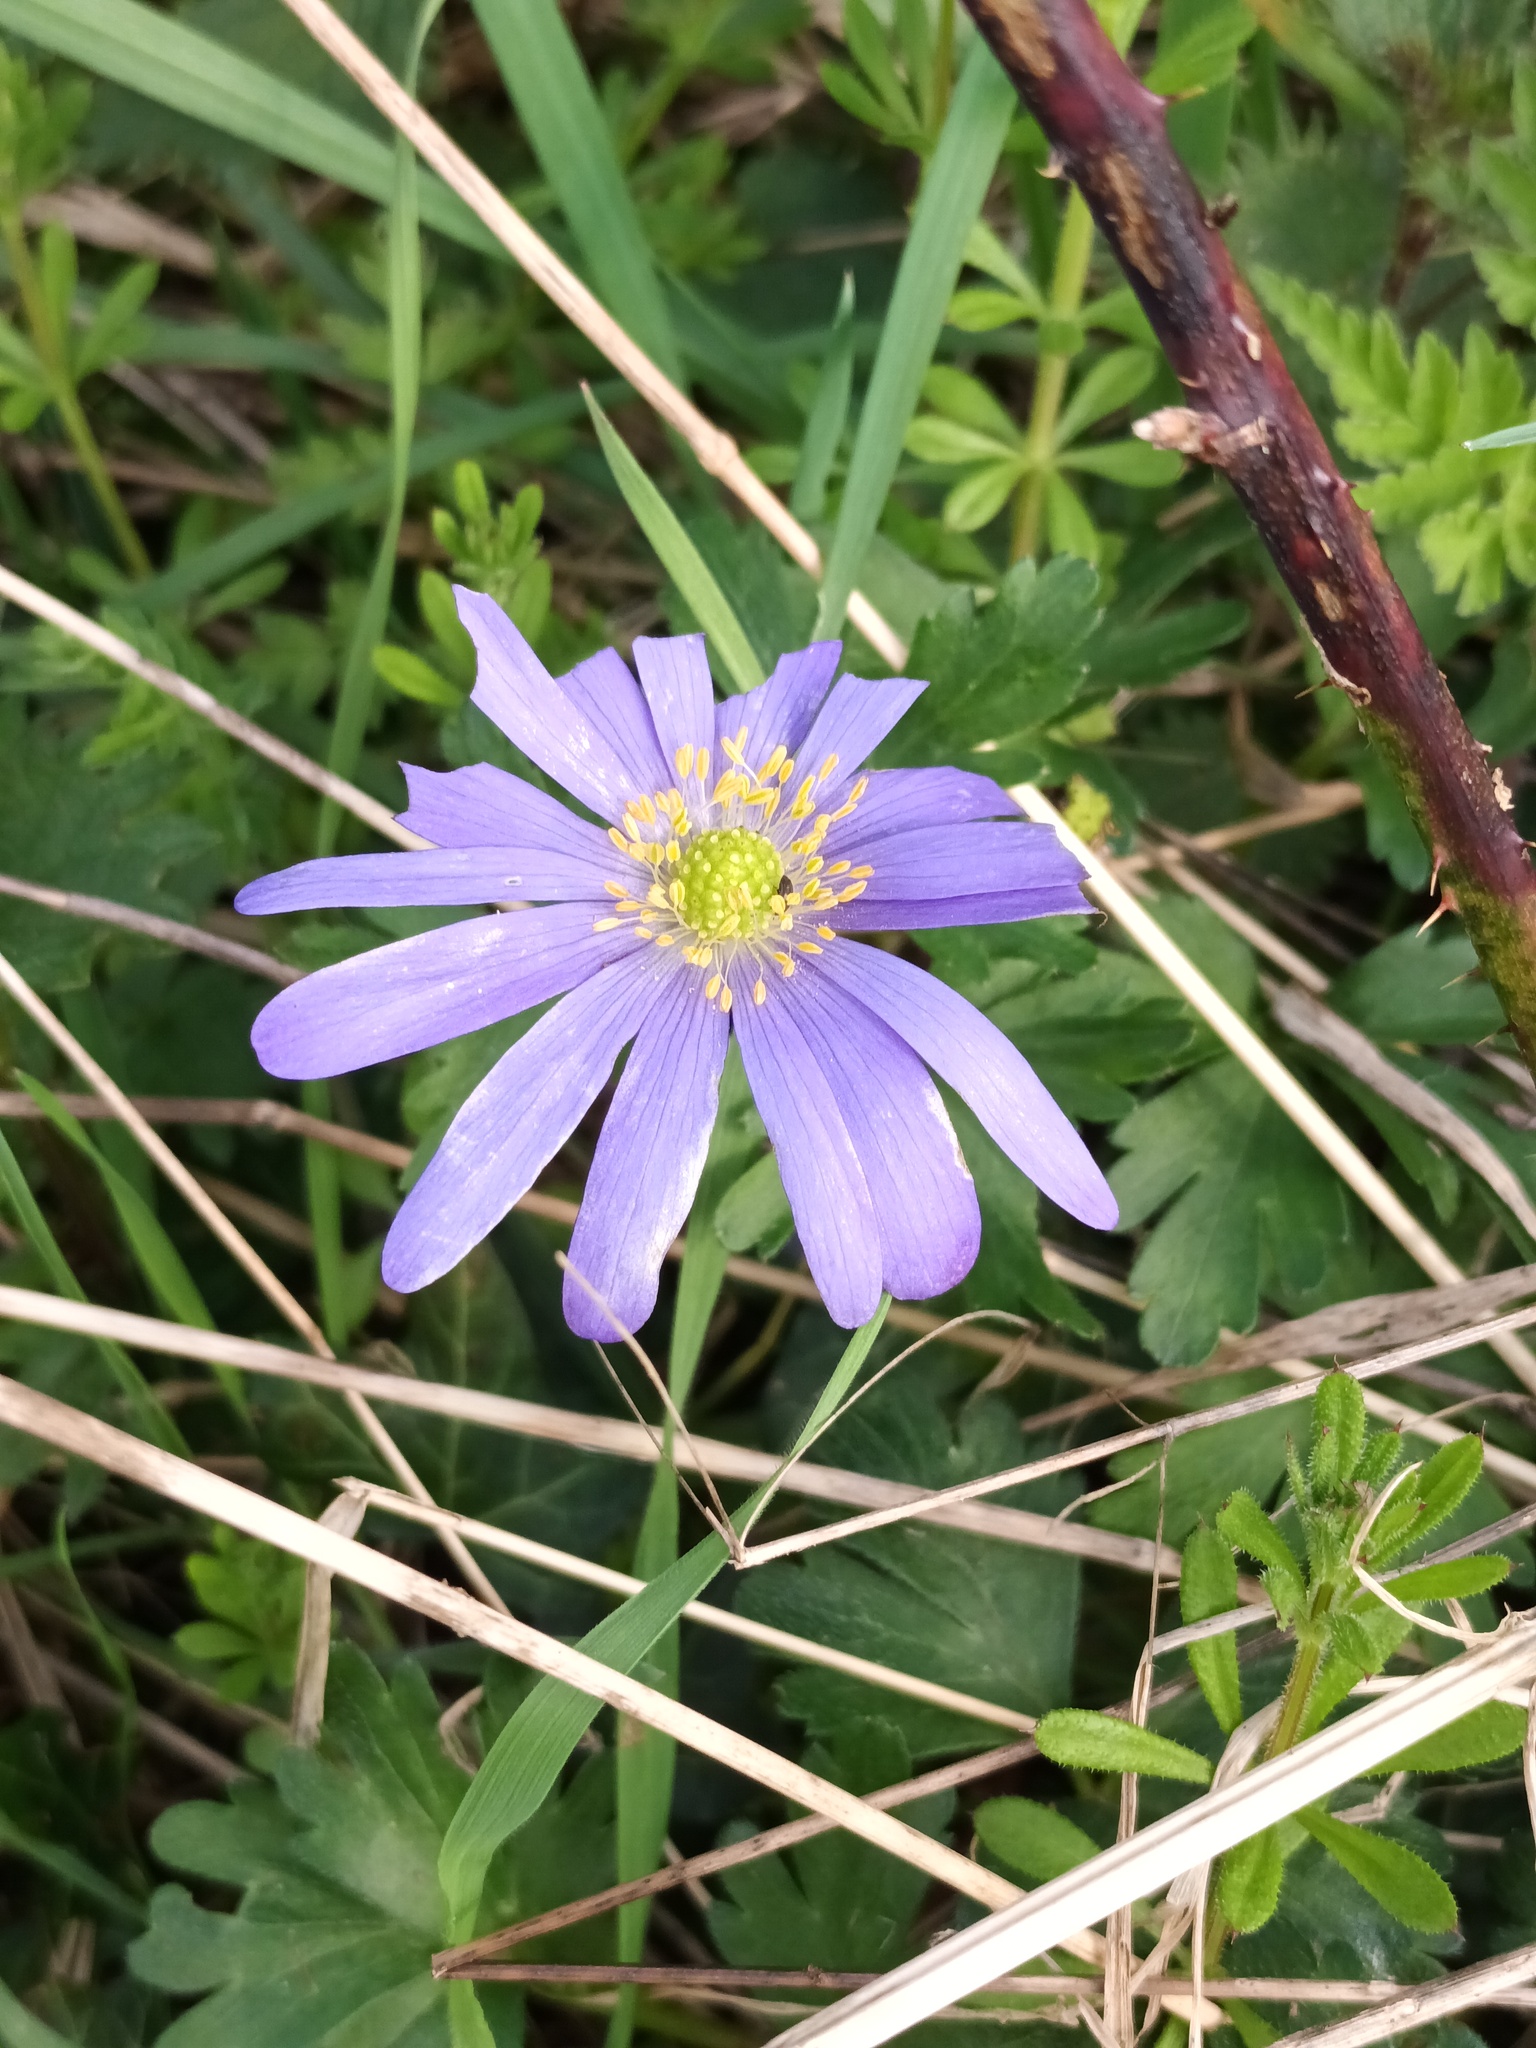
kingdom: Plantae
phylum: Tracheophyta
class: Magnoliopsida
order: Ranunculales
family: Ranunculaceae
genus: Anemone
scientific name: Anemone blanda
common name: Balkan anemone
